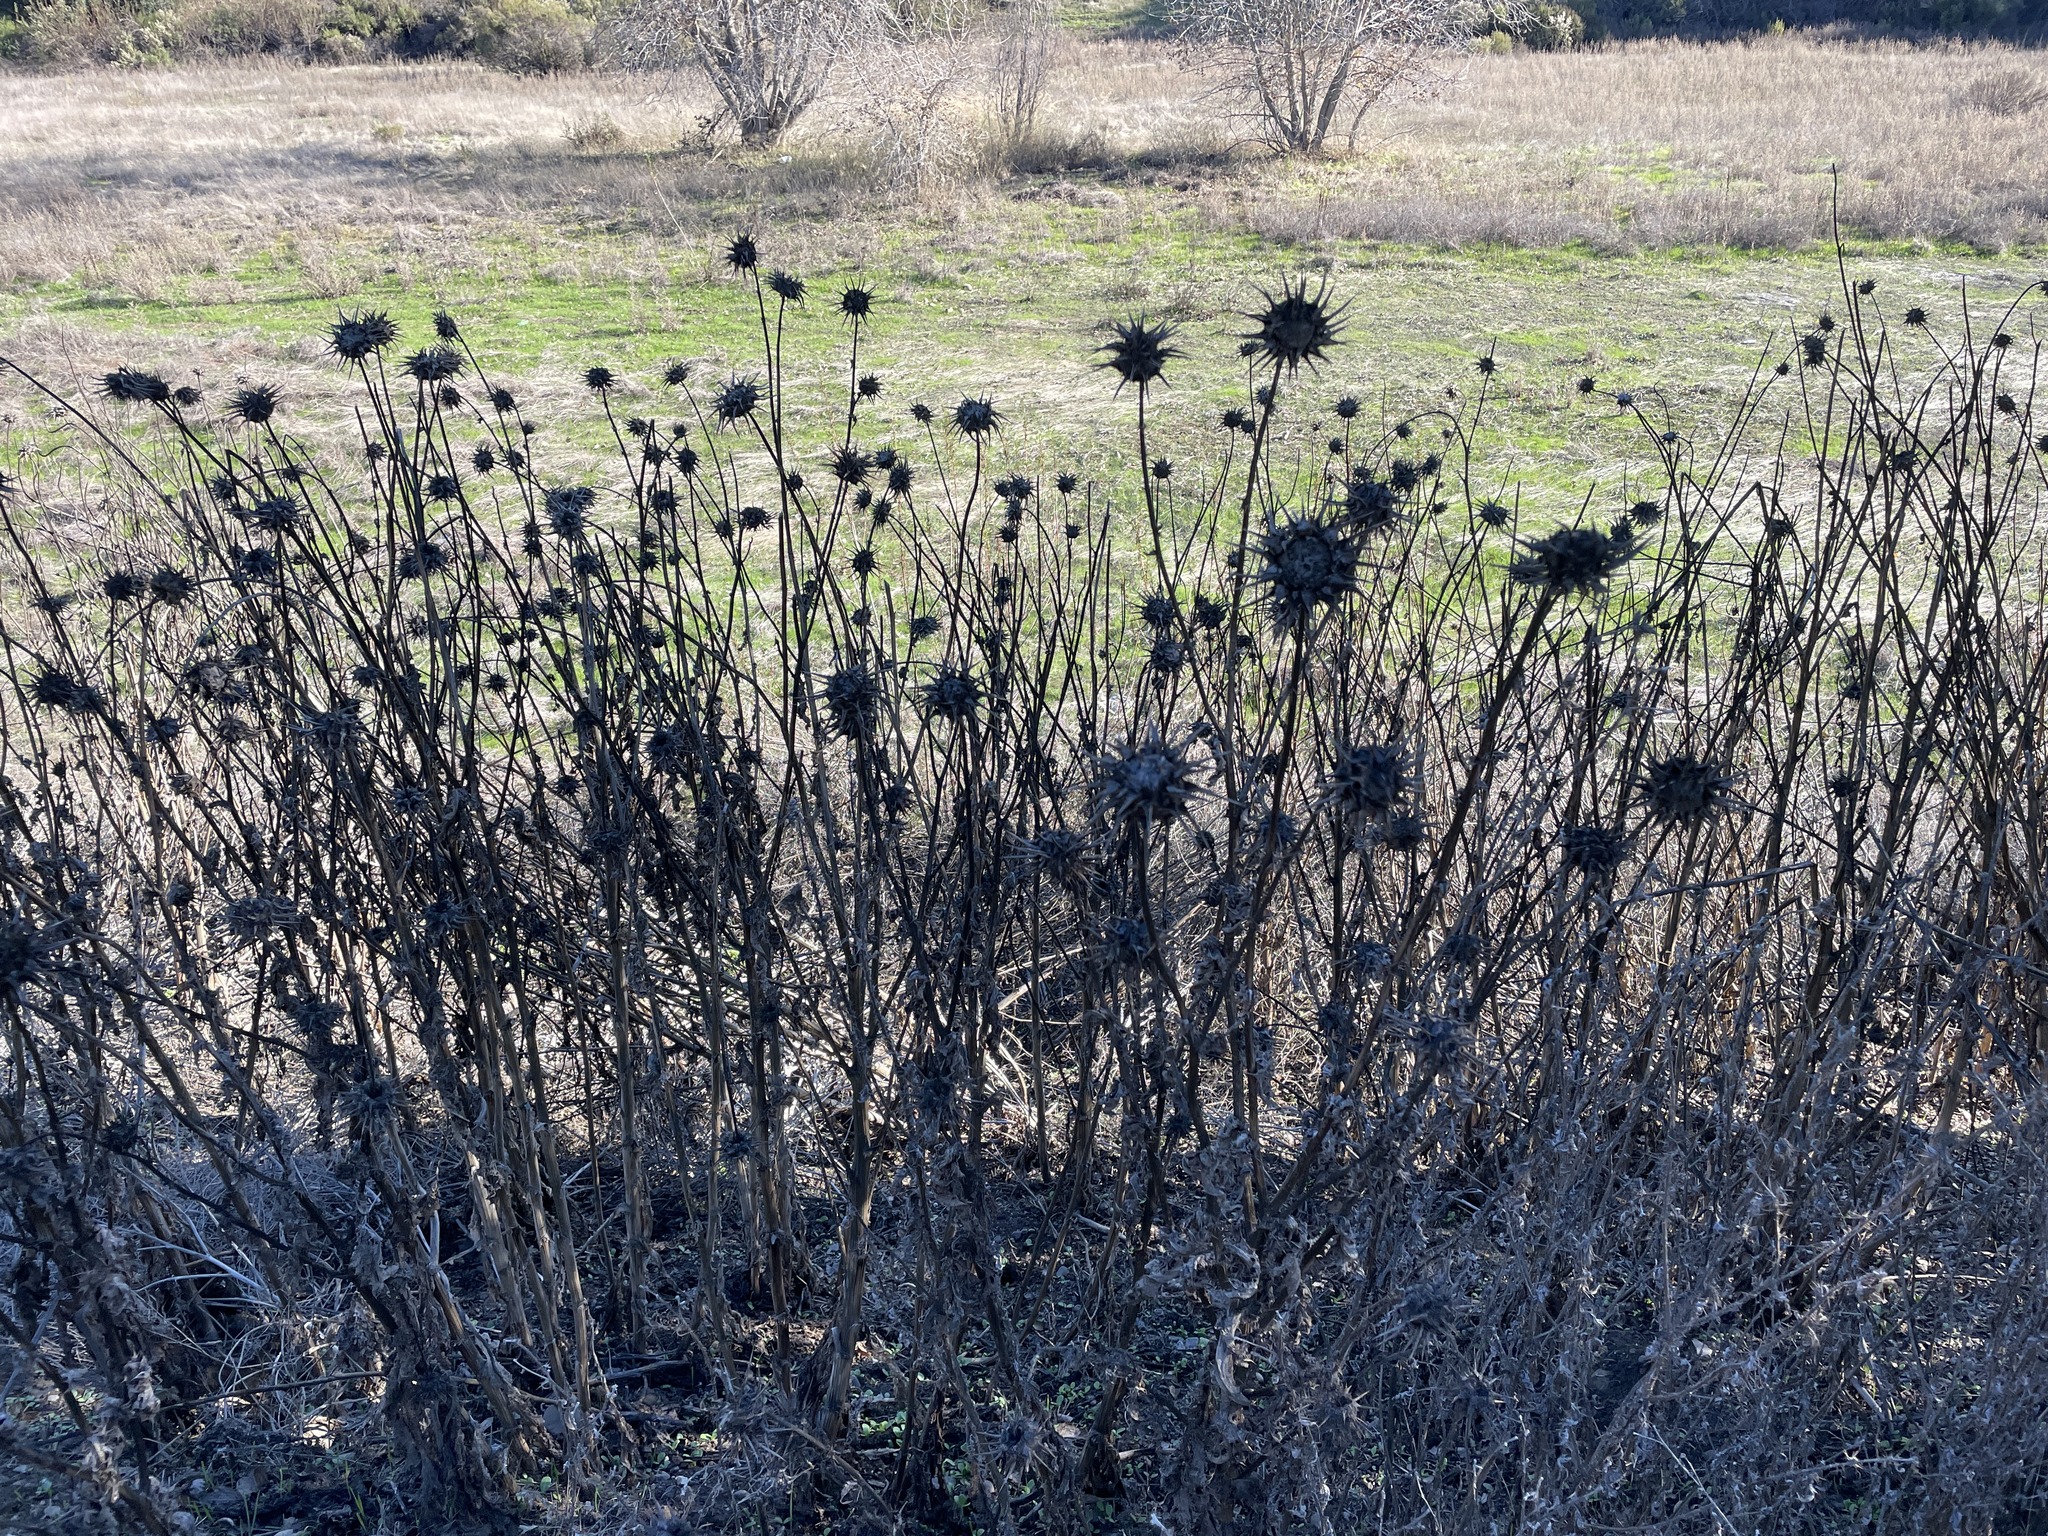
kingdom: Plantae
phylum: Tracheophyta
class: Magnoliopsida
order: Asterales
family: Asteraceae
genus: Silybum
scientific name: Silybum marianum
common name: Milk thistle
